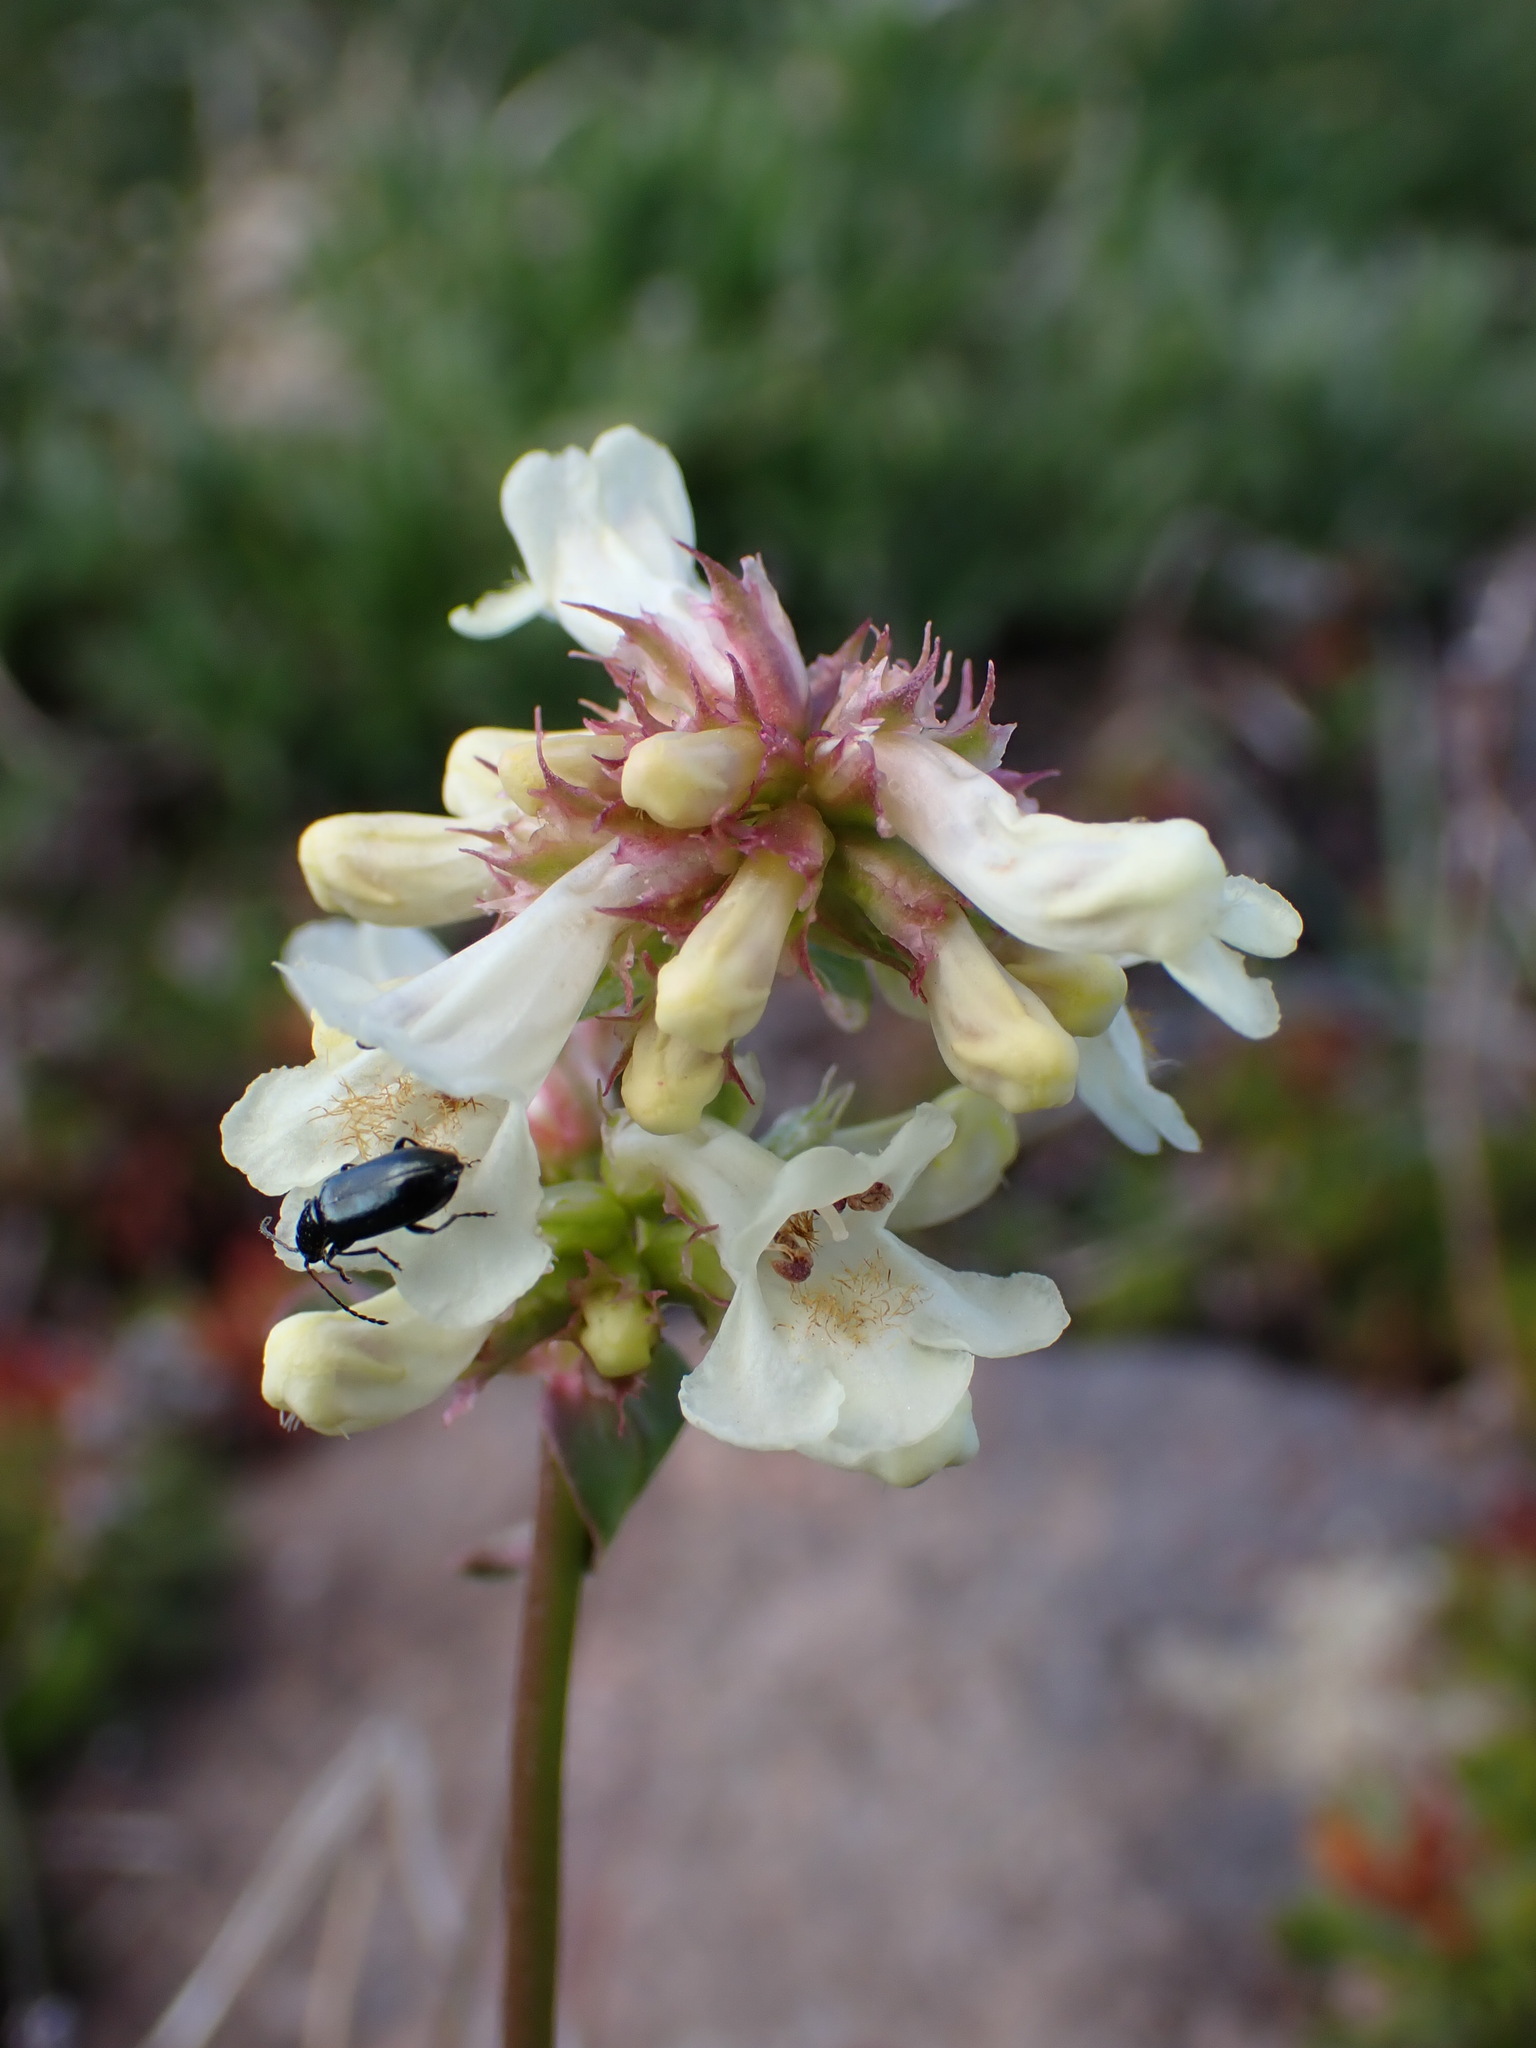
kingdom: Plantae
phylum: Tracheophyta
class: Magnoliopsida
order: Lamiales
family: Plantaginaceae
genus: Penstemon
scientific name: Penstemon confertus
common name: Lesser yellow beardtongue
